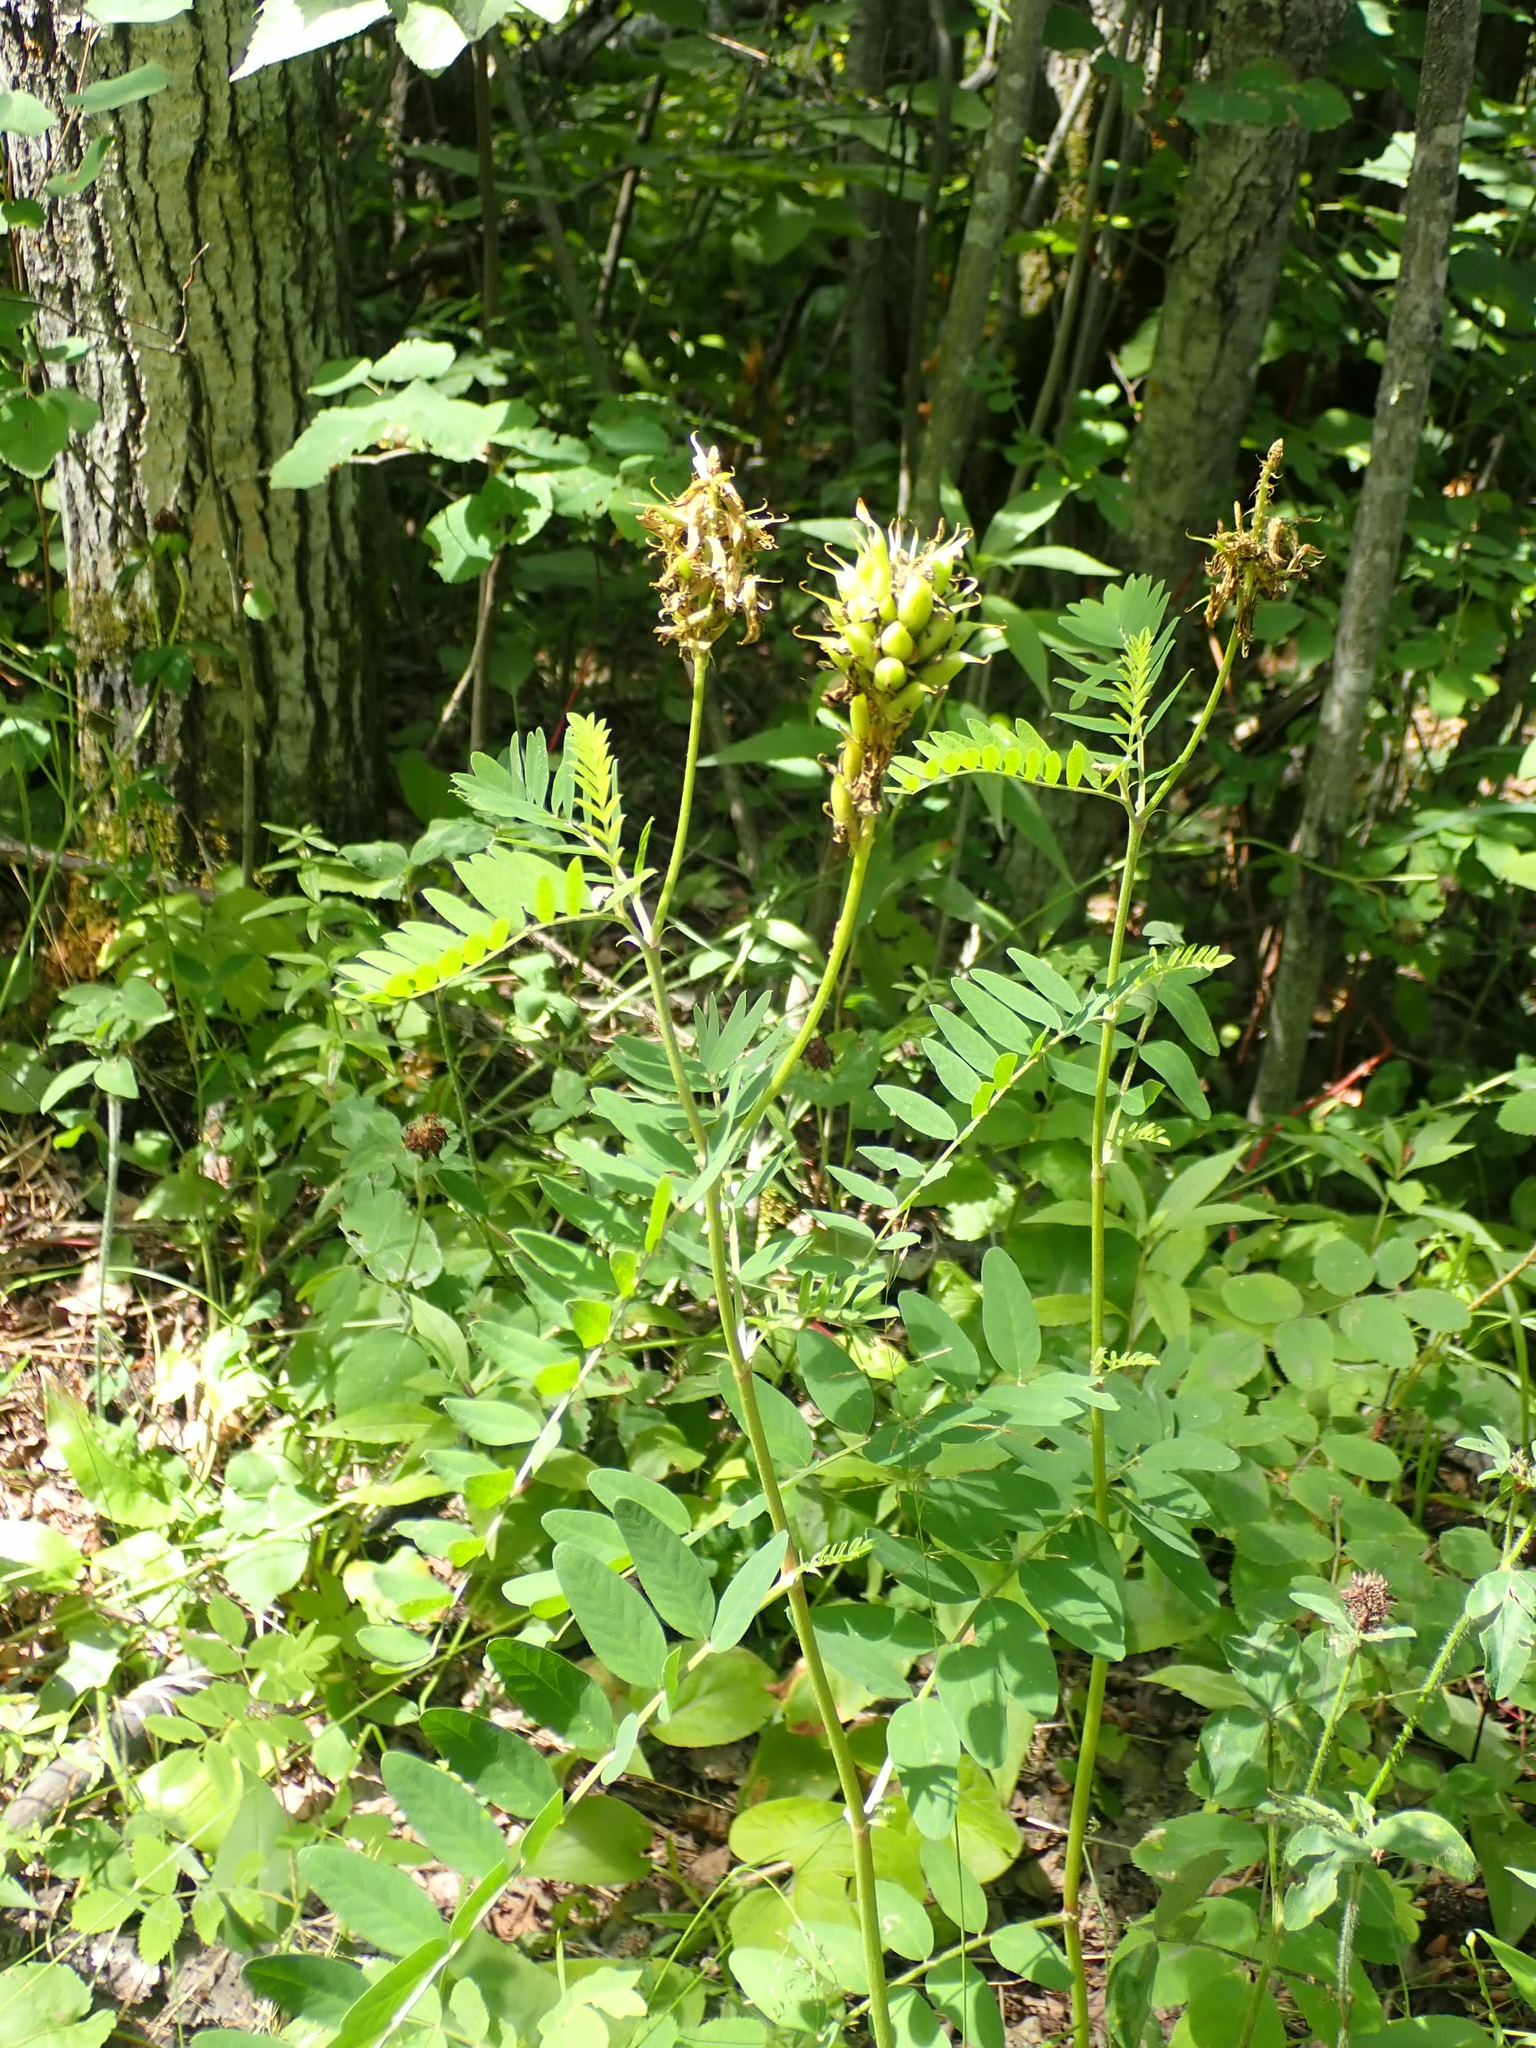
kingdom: Plantae
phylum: Tracheophyta
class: Magnoliopsida
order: Fabales
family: Fabaceae
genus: Astragalus
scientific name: Astragalus canadensis
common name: Canada milk-vetch
